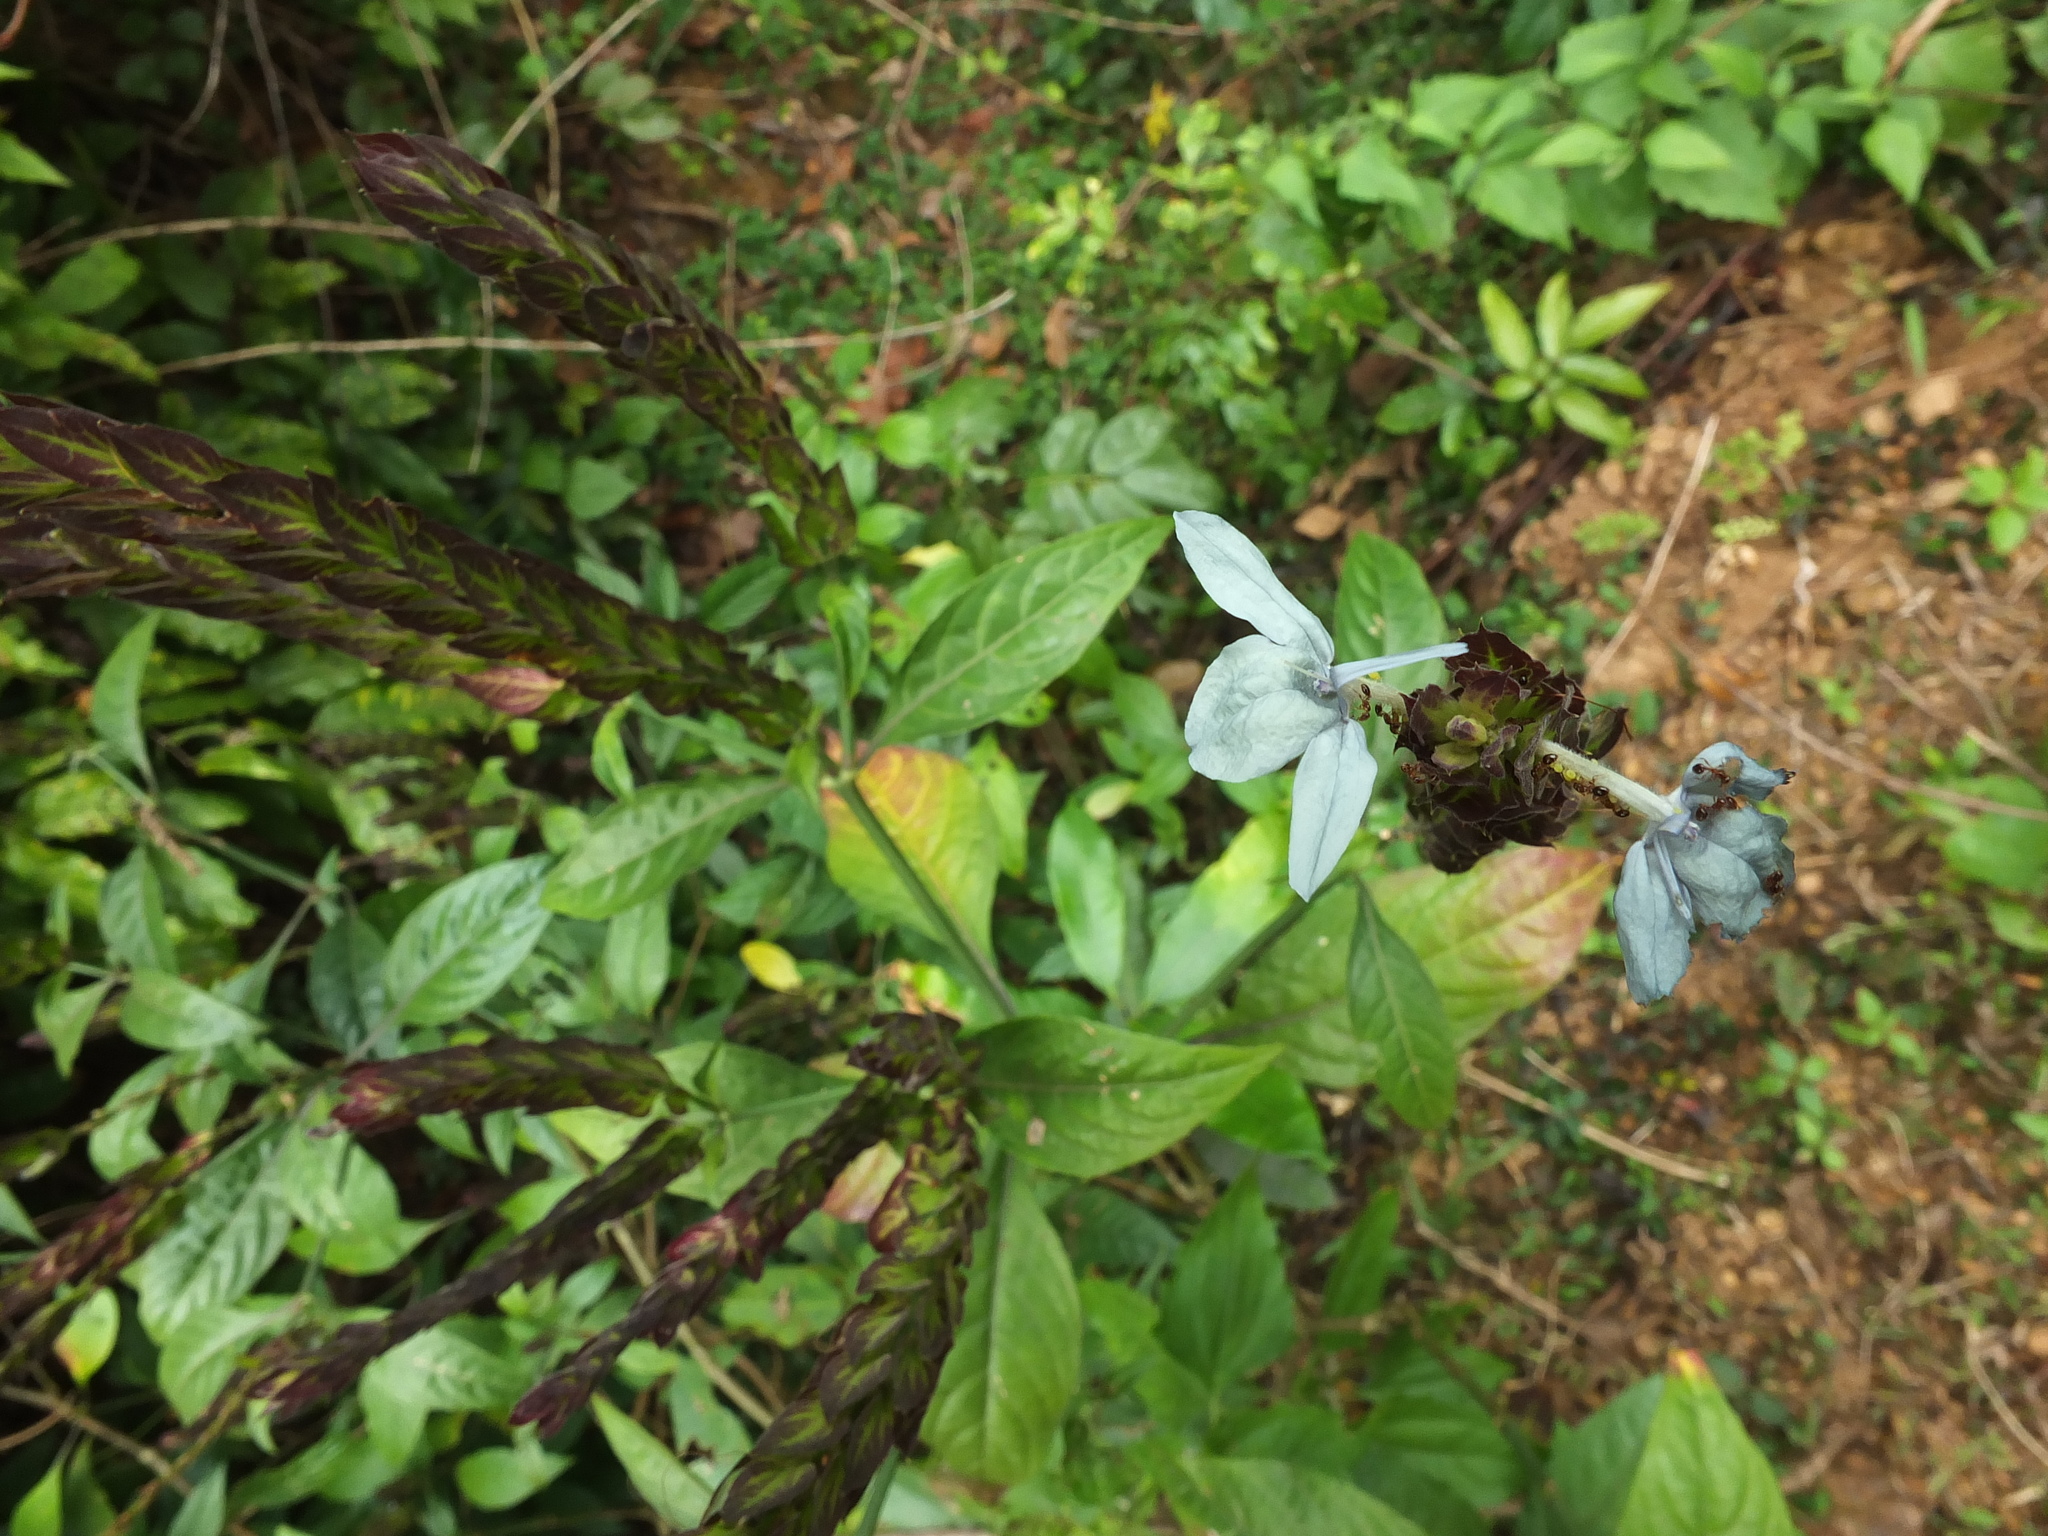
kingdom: Plantae
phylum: Tracheophyta
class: Magnoliopsida
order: Lamiales
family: Acanthaceae
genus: Ecbolium
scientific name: Ecbolium ligustrinum
